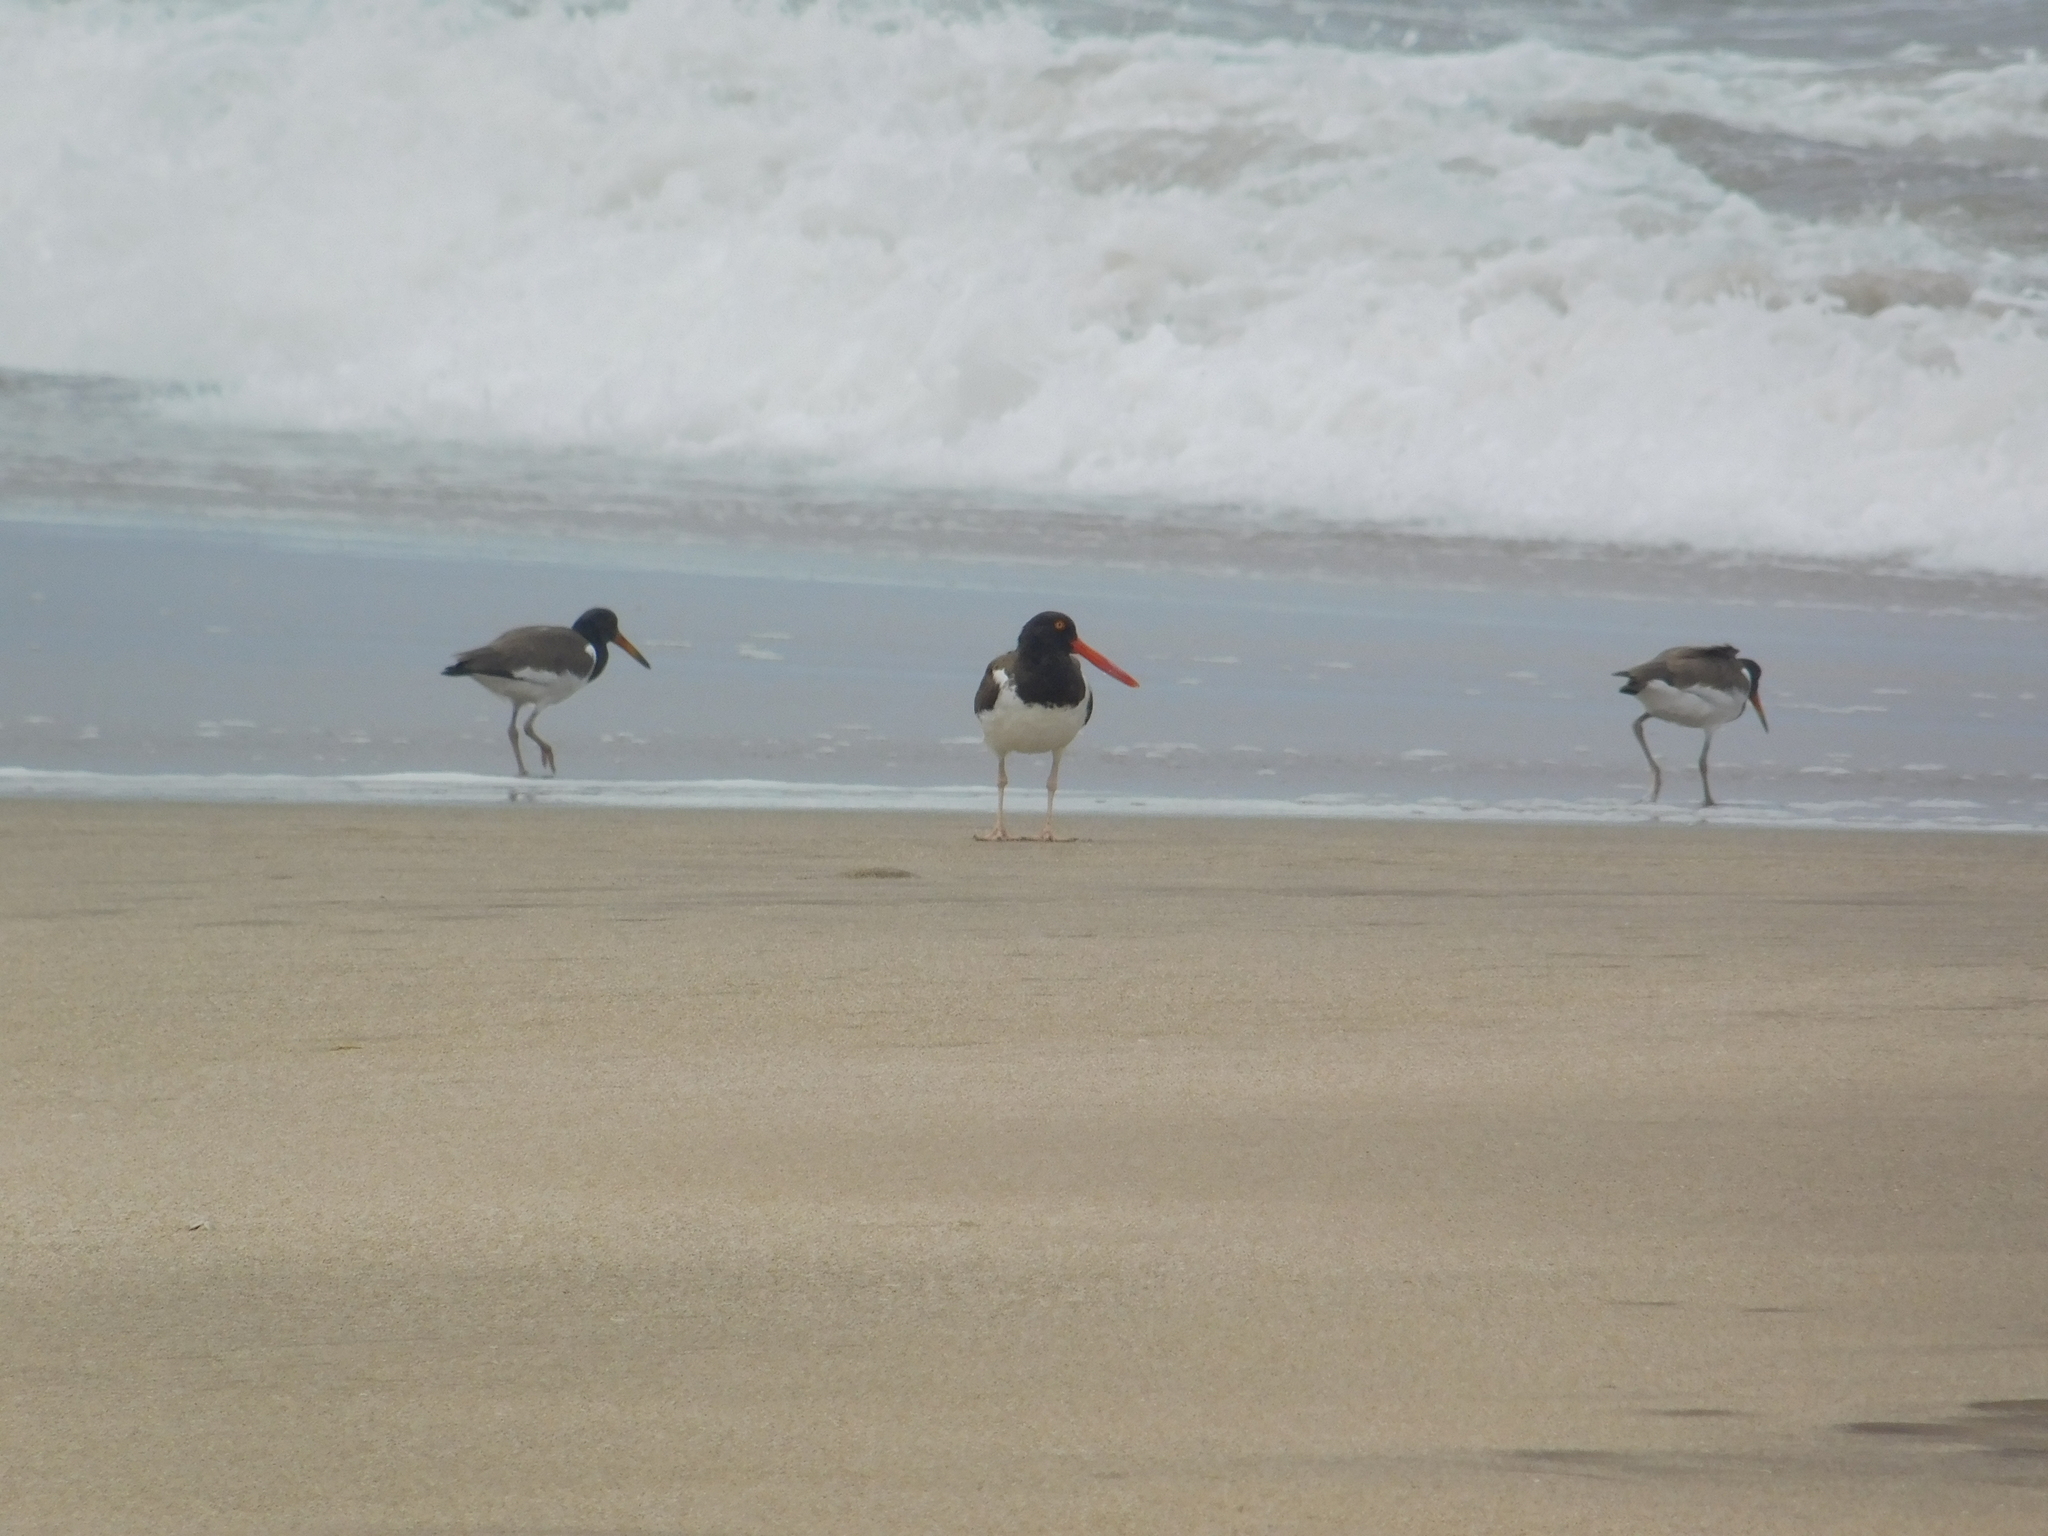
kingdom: Animalia
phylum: Chordata
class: Aves
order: Charadriiformes
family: Haematopodidae
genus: Haematopus
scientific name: Haematopus palliatus
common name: American oystercatcher
